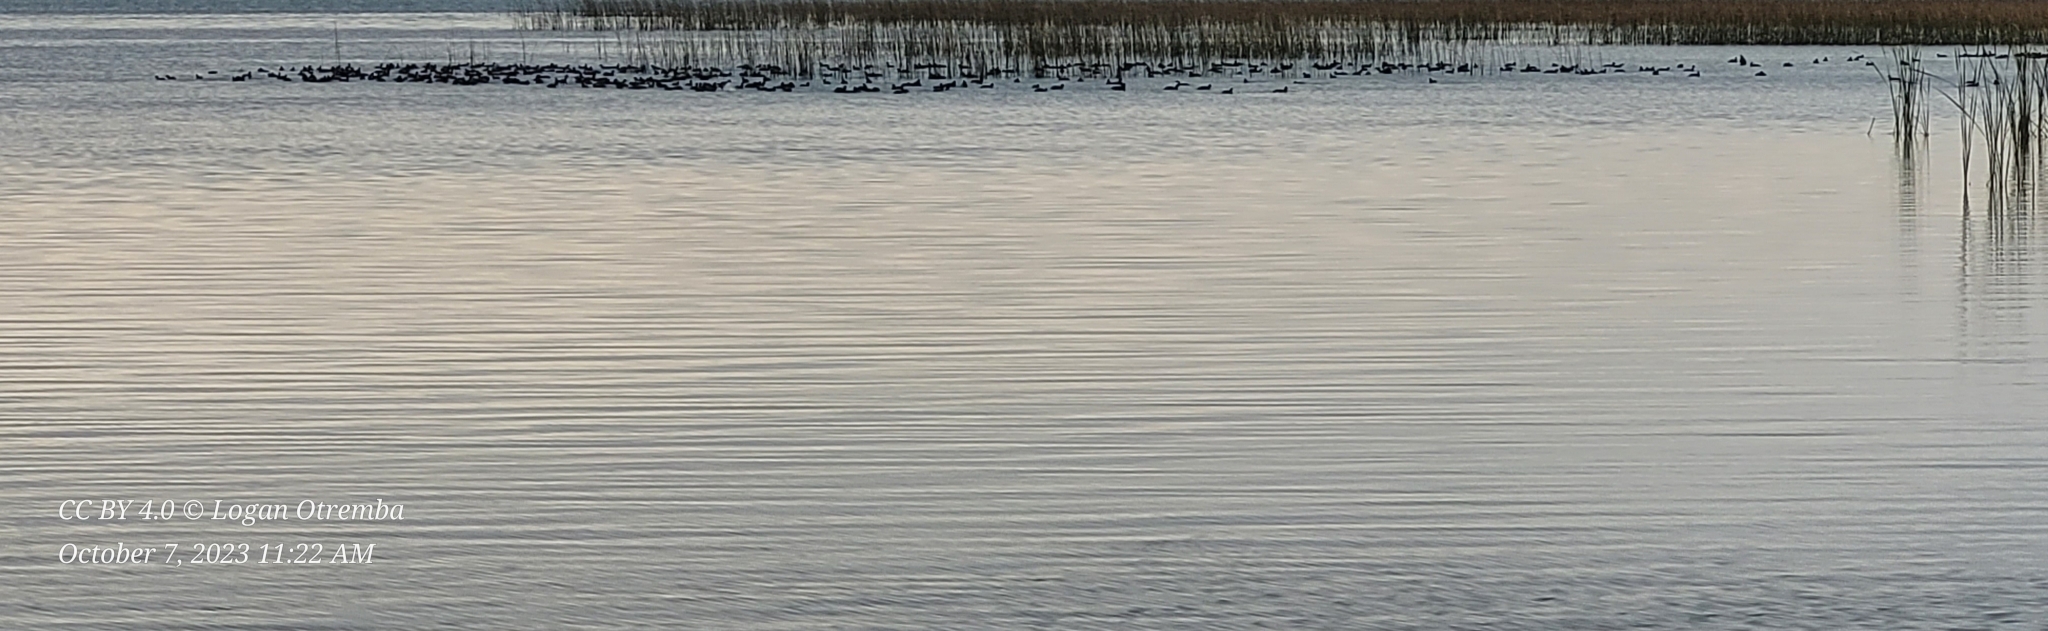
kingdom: Animalia
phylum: Chordata
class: Aves
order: Gruiformes
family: Rallidae
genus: Fulica
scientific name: Fulica americana
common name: American coot
